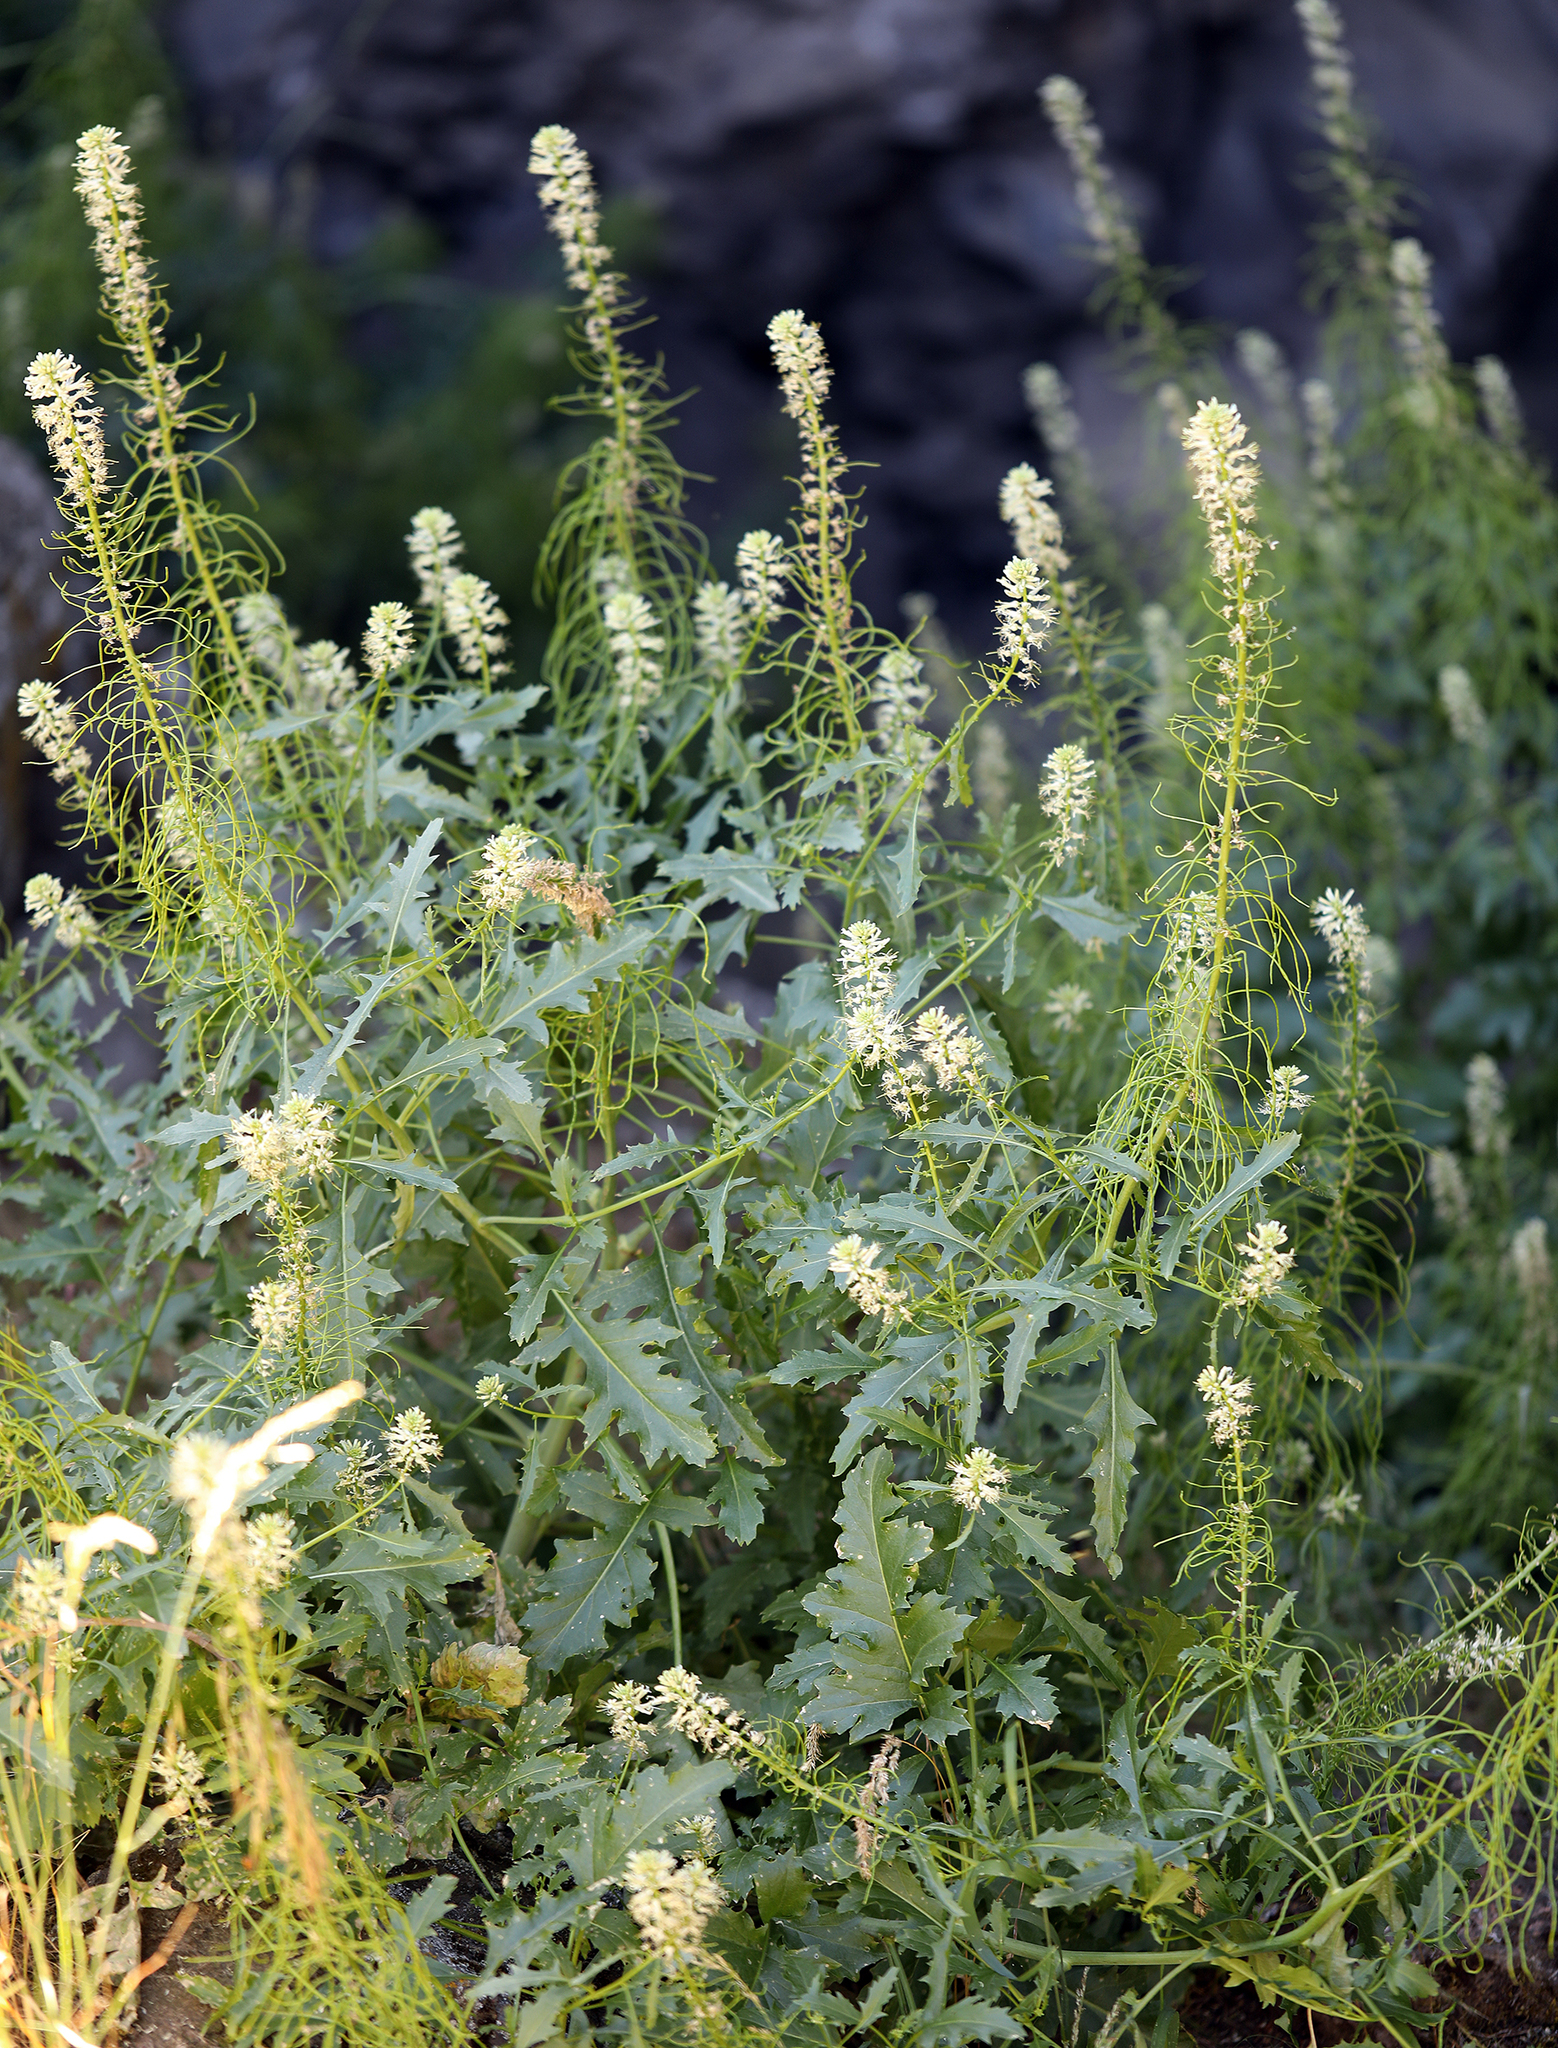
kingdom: Plantae
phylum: Tracheophyta
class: Magnoliopsida
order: Brassicales
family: Brassicaceae
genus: Thelypodium
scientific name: Thelypodium laciniatum
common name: Cut-leaved thelypody
